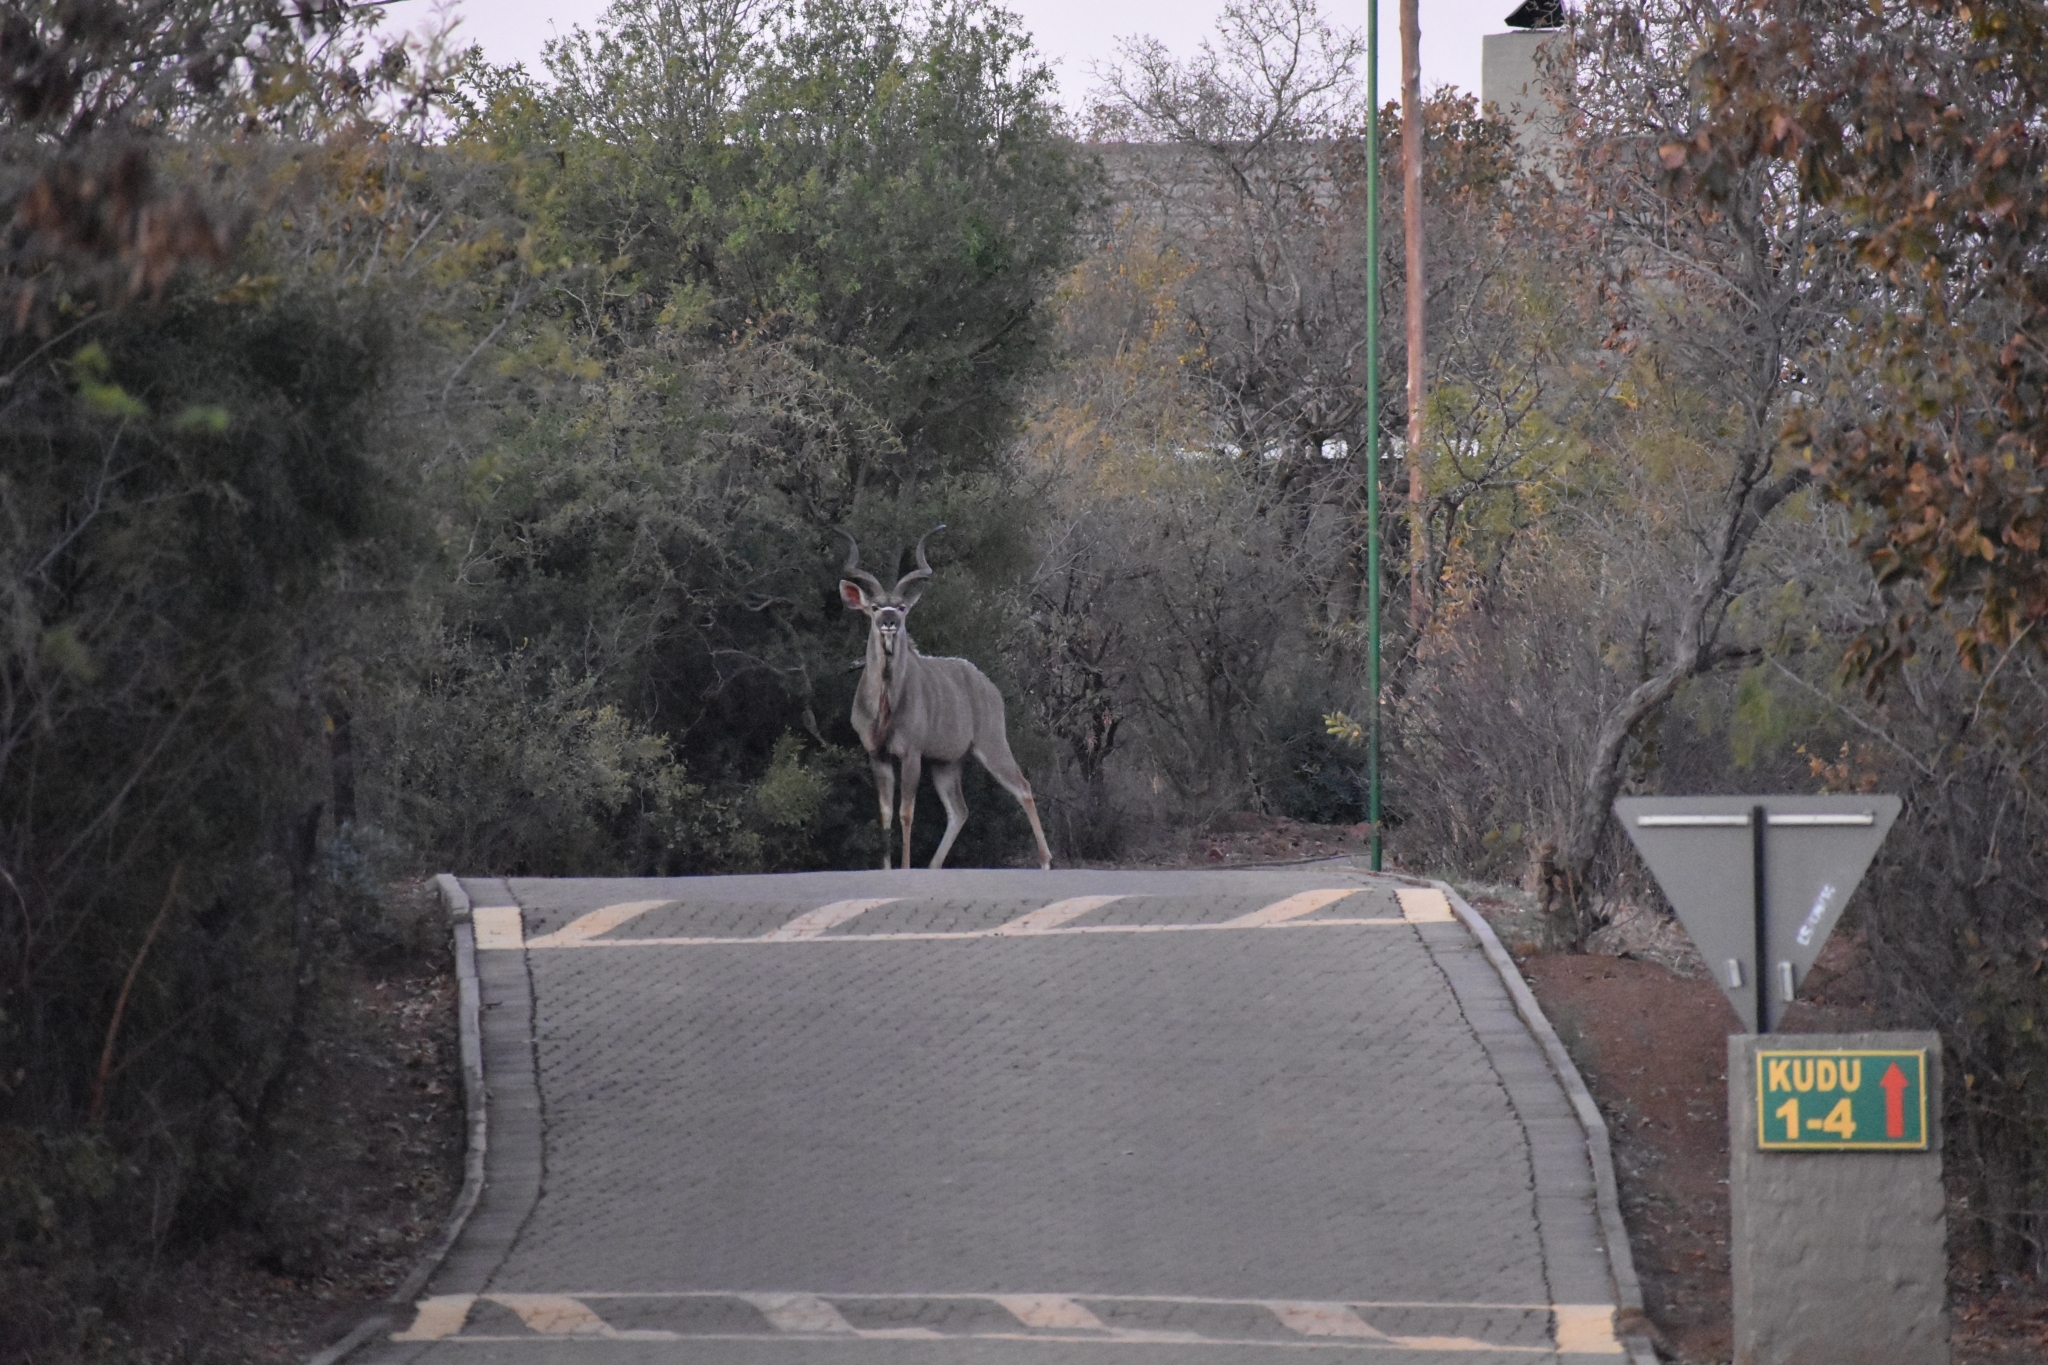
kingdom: Animalia
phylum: Chordata
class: Mammalia
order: Artiodactyla
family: Bovidae
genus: Tragelaphus
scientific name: Tragelaphus strepsiceros
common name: Greater kudu
